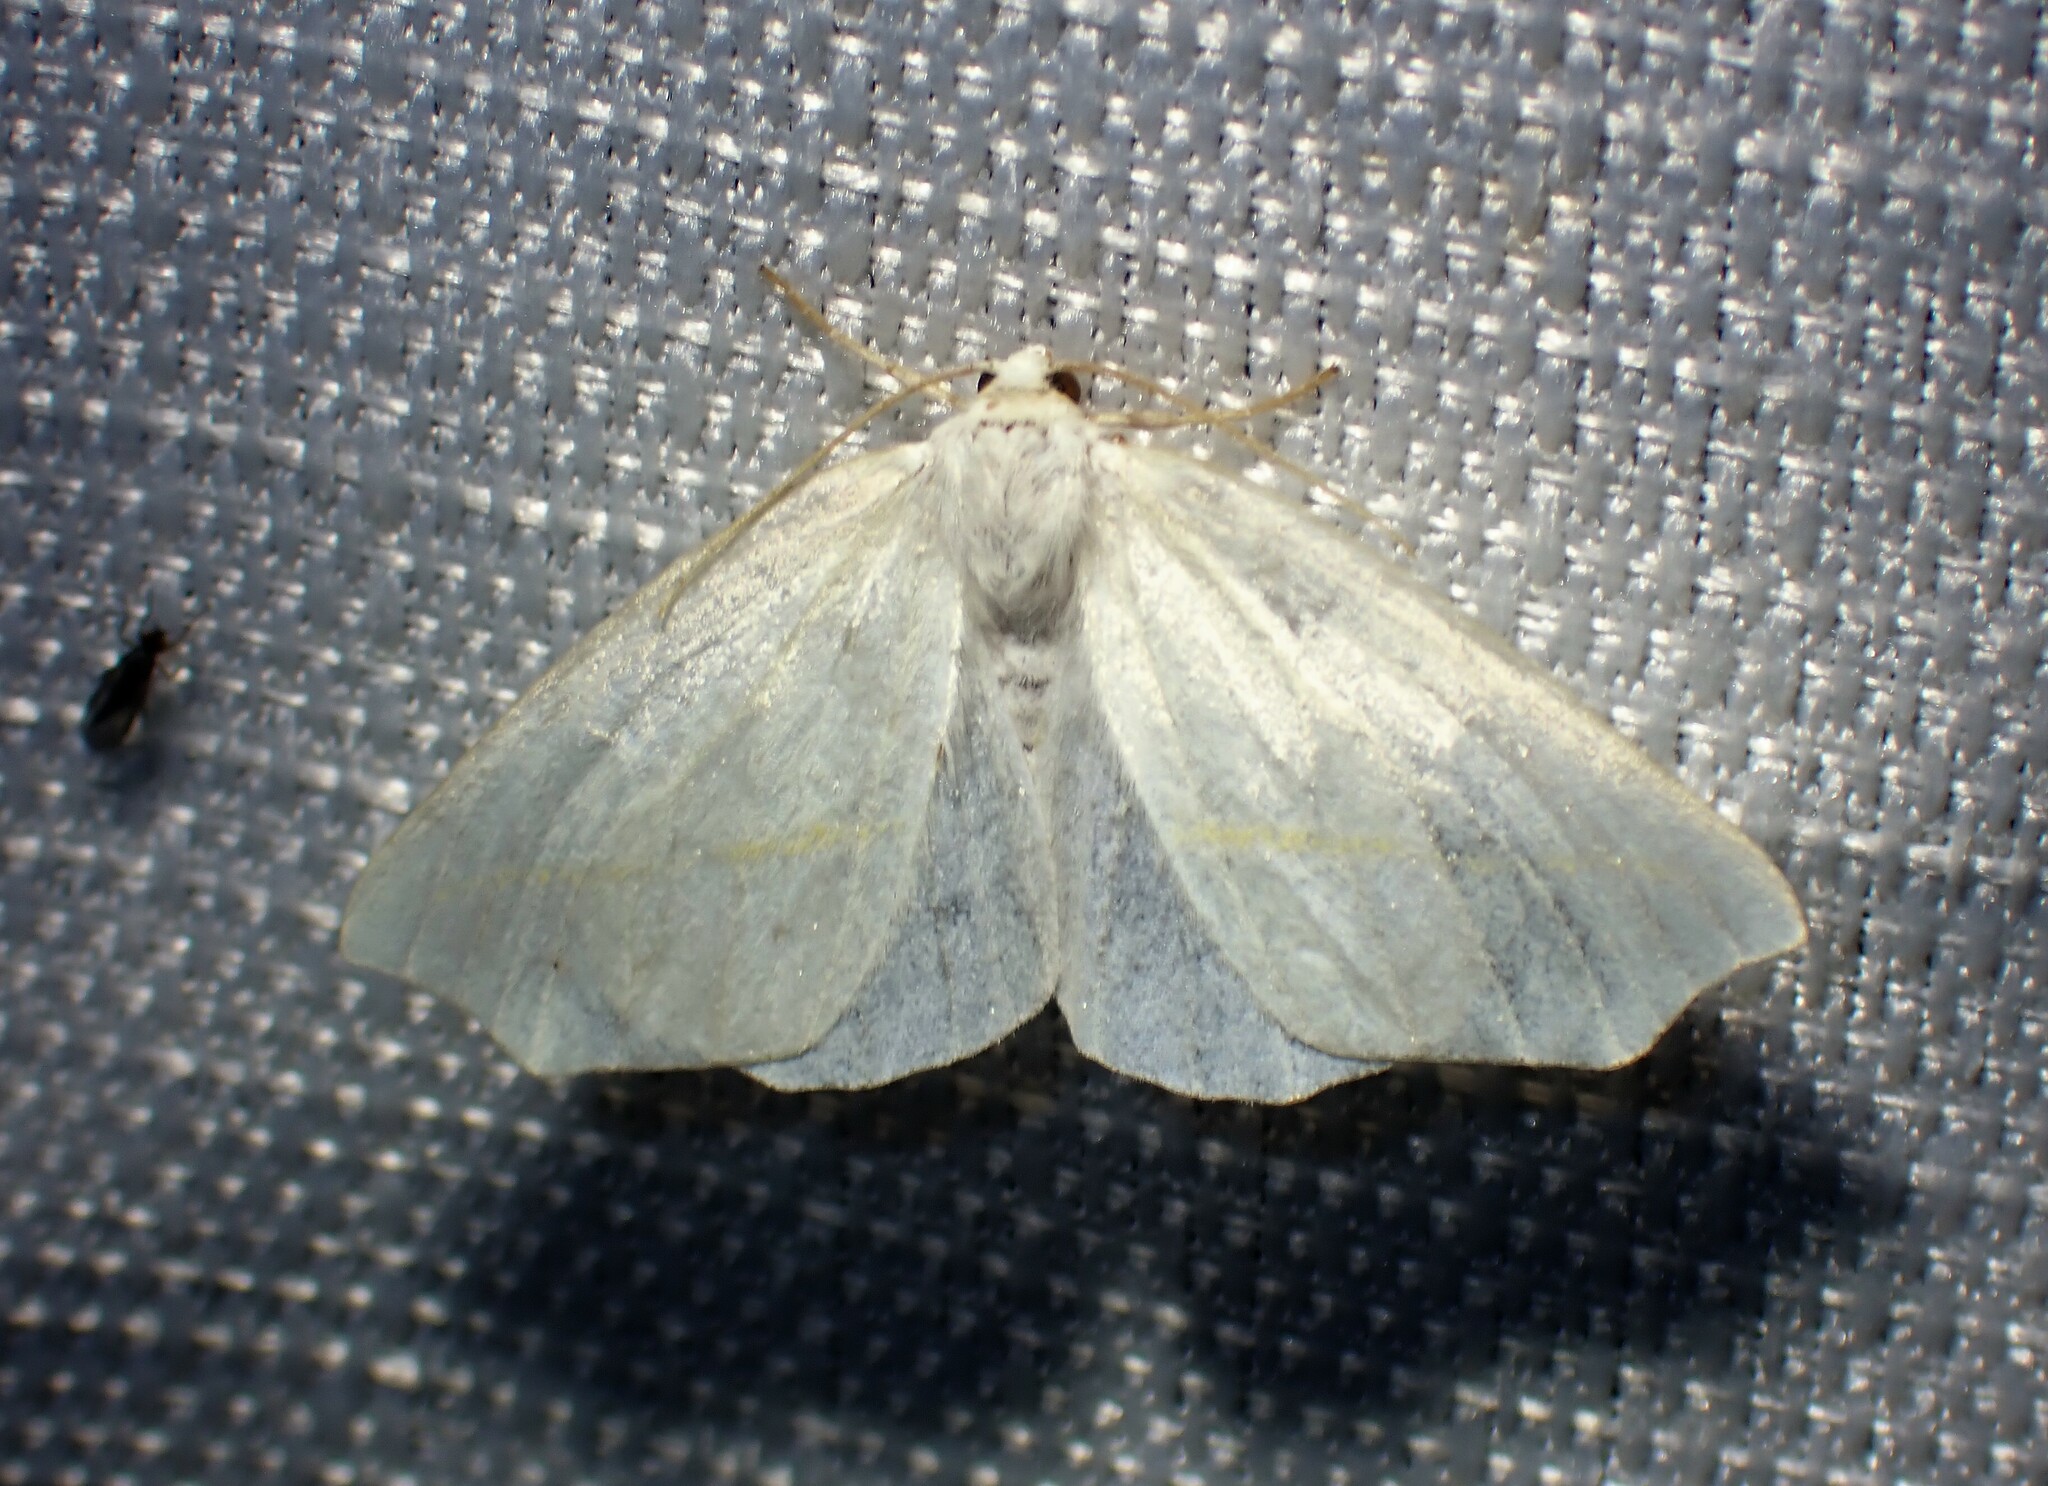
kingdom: Animalia
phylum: Arthropoda
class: Insecta
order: Lepidoptera
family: Geometridae
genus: Tetracis
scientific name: Tetracis cachexiata
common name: White slant-line
